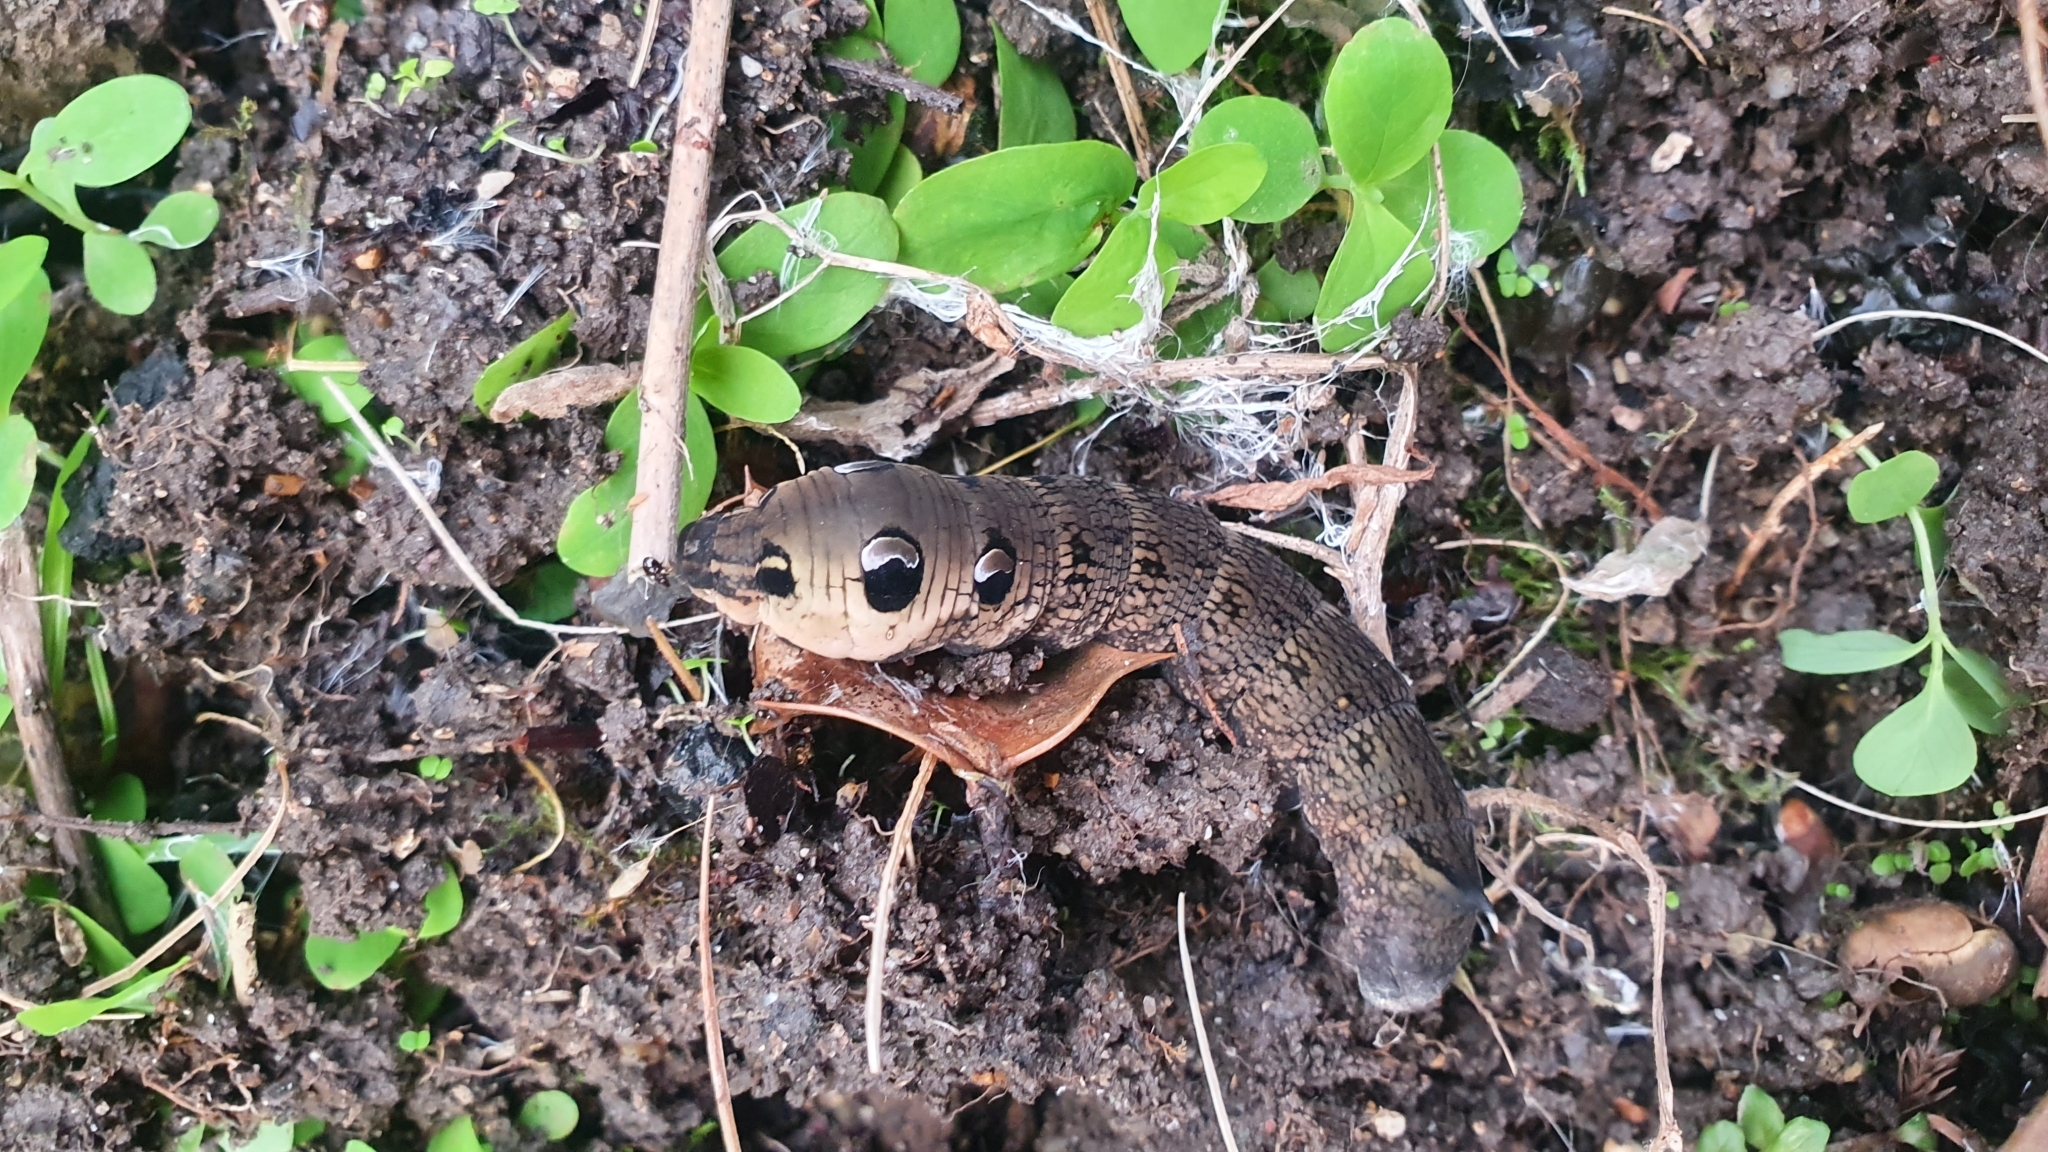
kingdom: Animalia
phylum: Arthropoda
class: Insecta
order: Lepidoptera
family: Sphingidae
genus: Deilephila
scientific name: Deilephila elpenor
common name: Elephant hawk-moth
